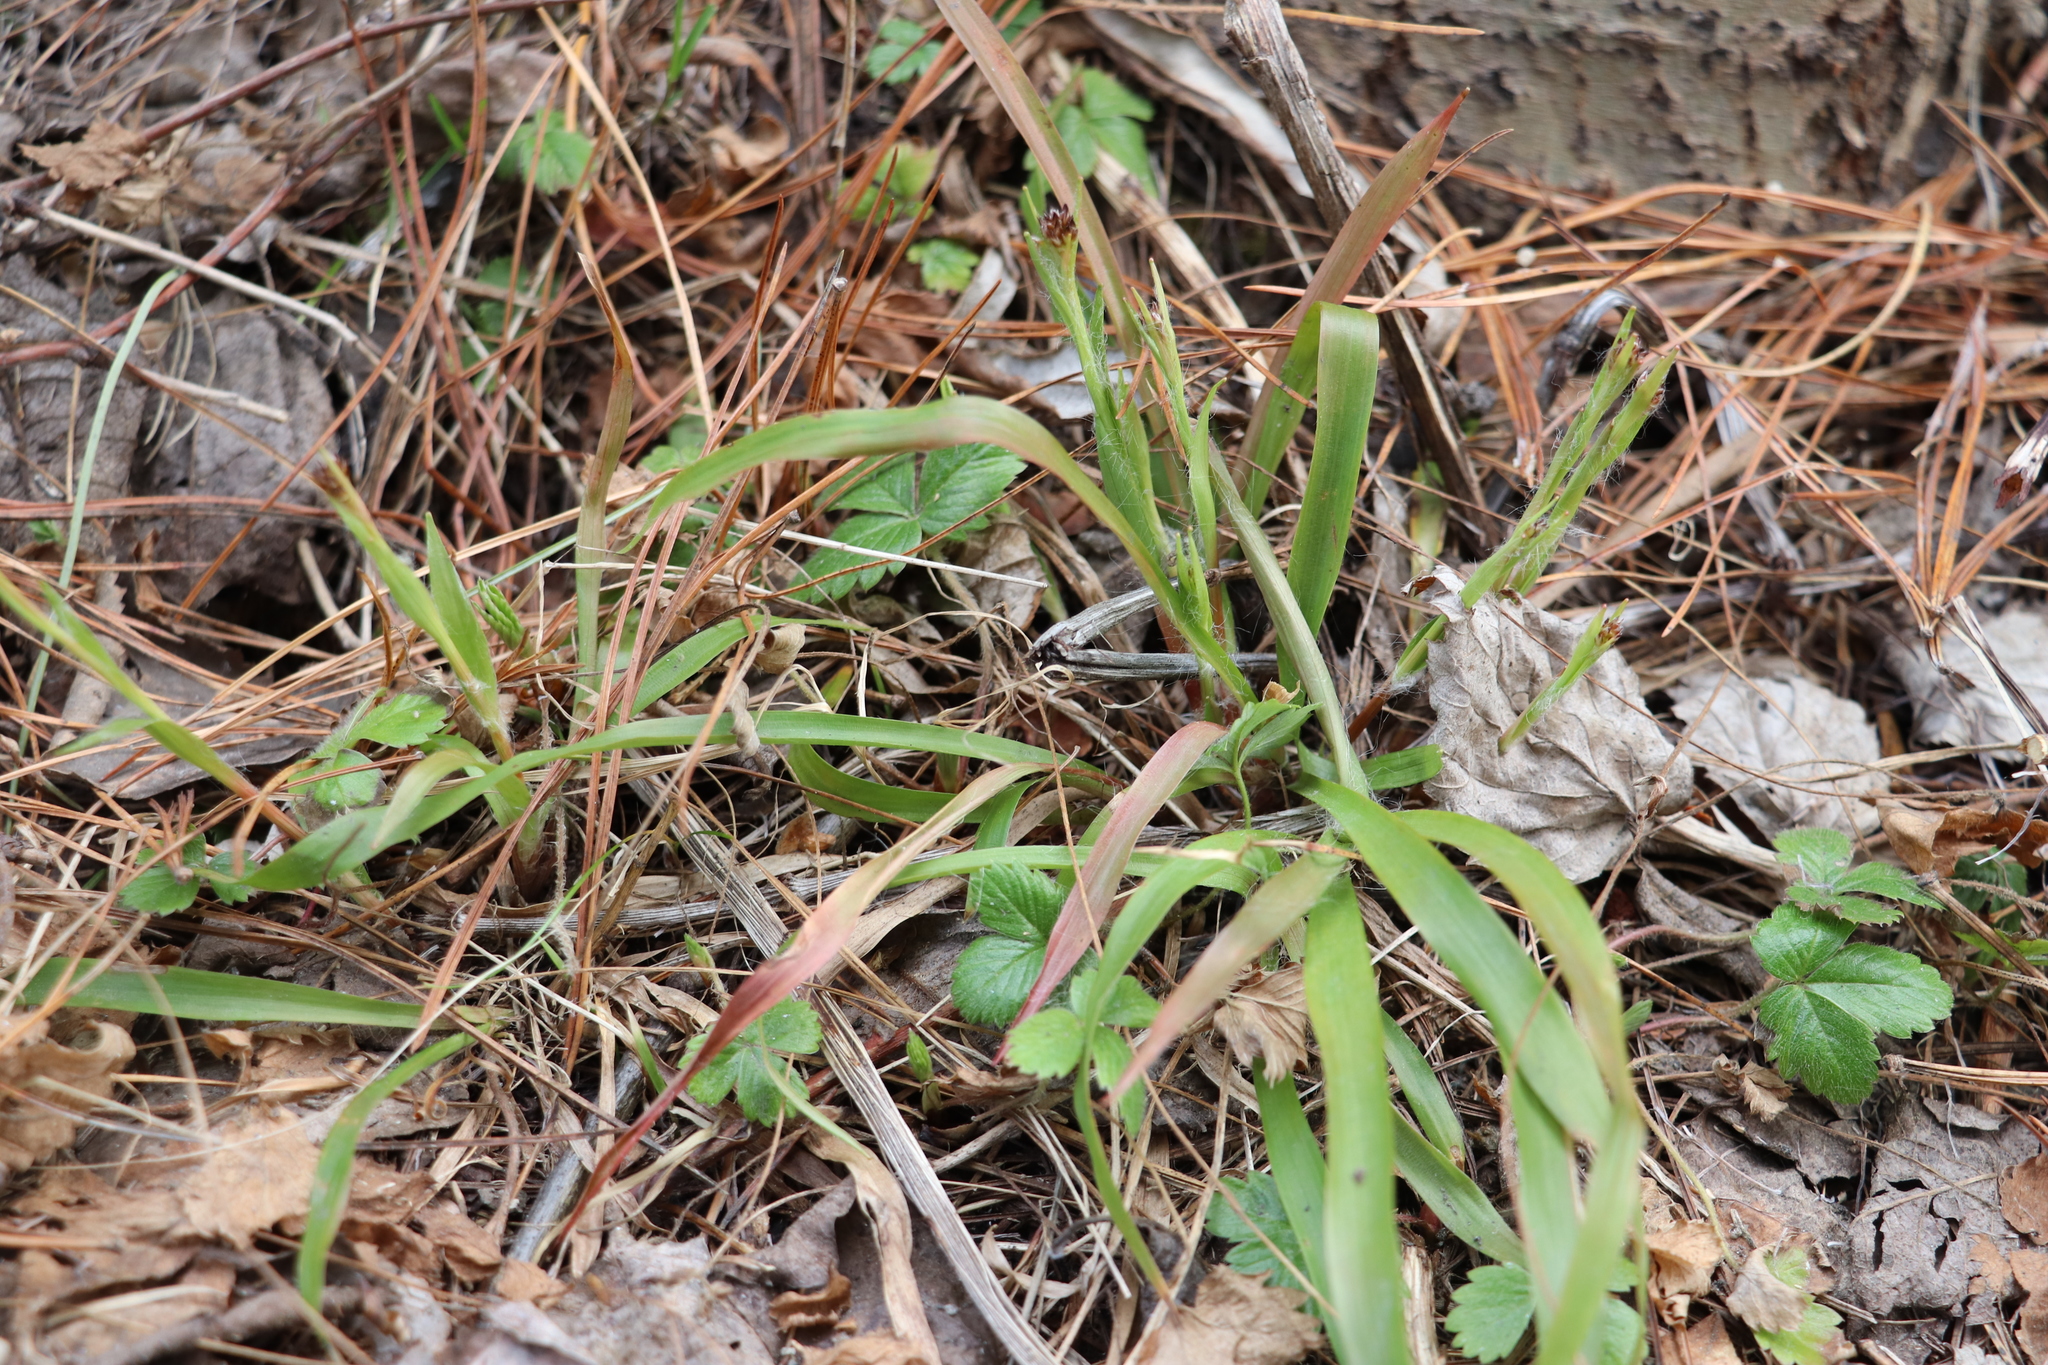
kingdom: Plantae
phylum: Tracheophyta
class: Liliopsida
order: Poales
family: Juncaceae
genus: Luzula
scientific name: Luzula pilosa
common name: Hairy wood-rush
